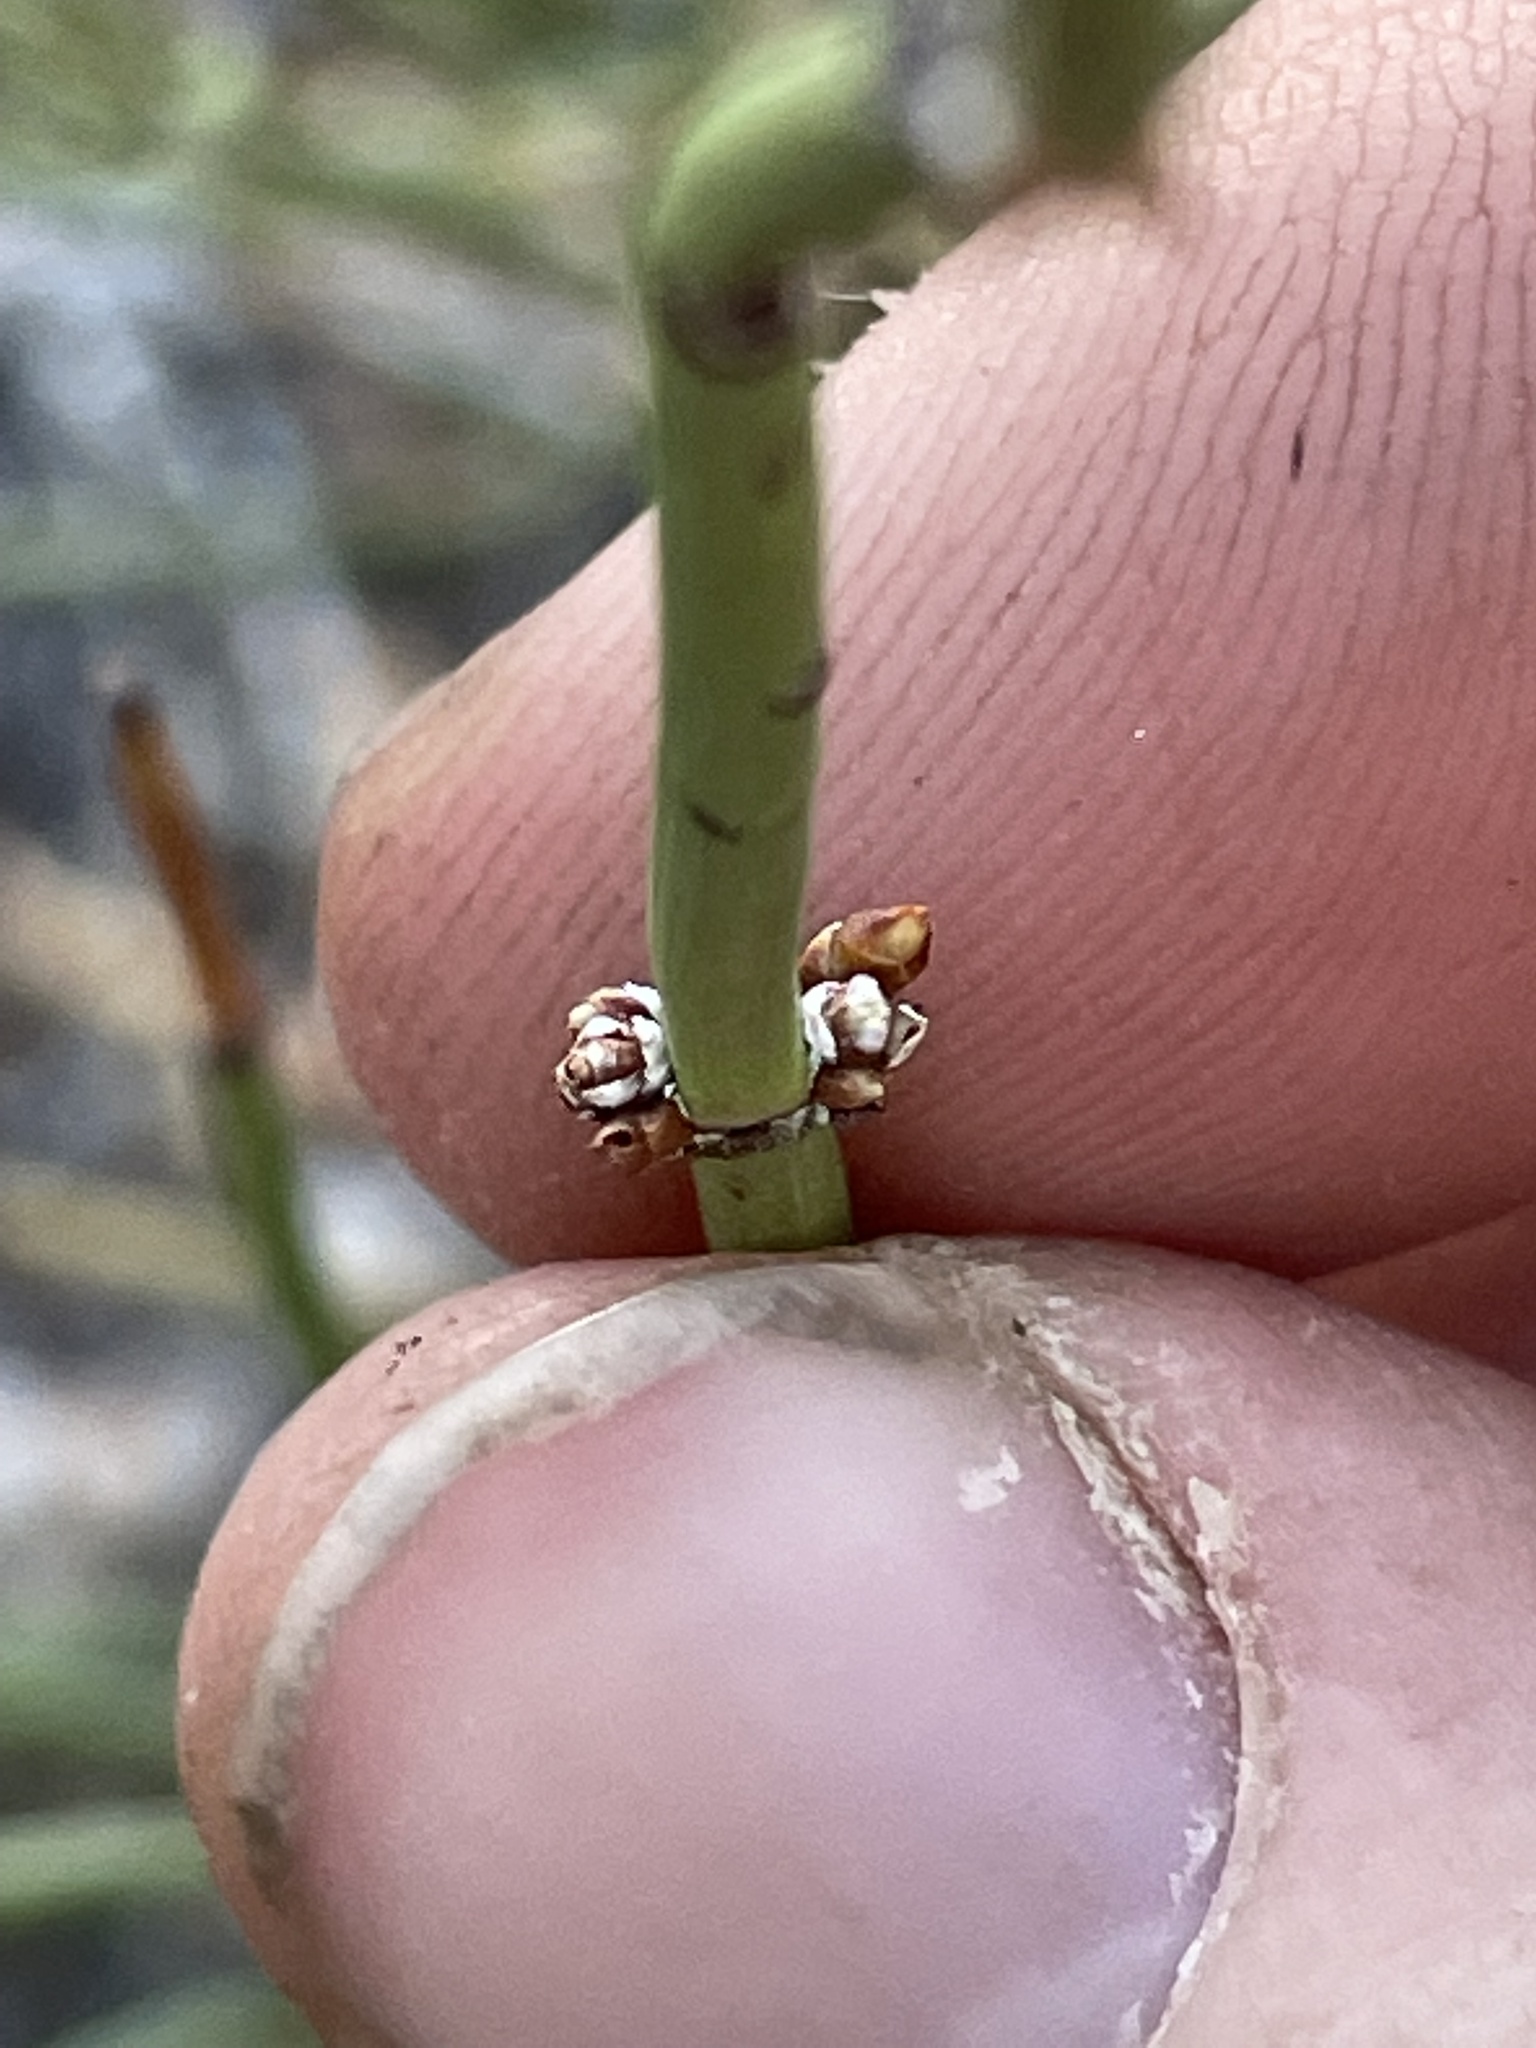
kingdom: Plantae
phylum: Tracheophyta
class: Gnetopsida
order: Ephedrales
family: Ephedraceae
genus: Ephedra
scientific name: Ephedra viridis
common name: Green ephedra
